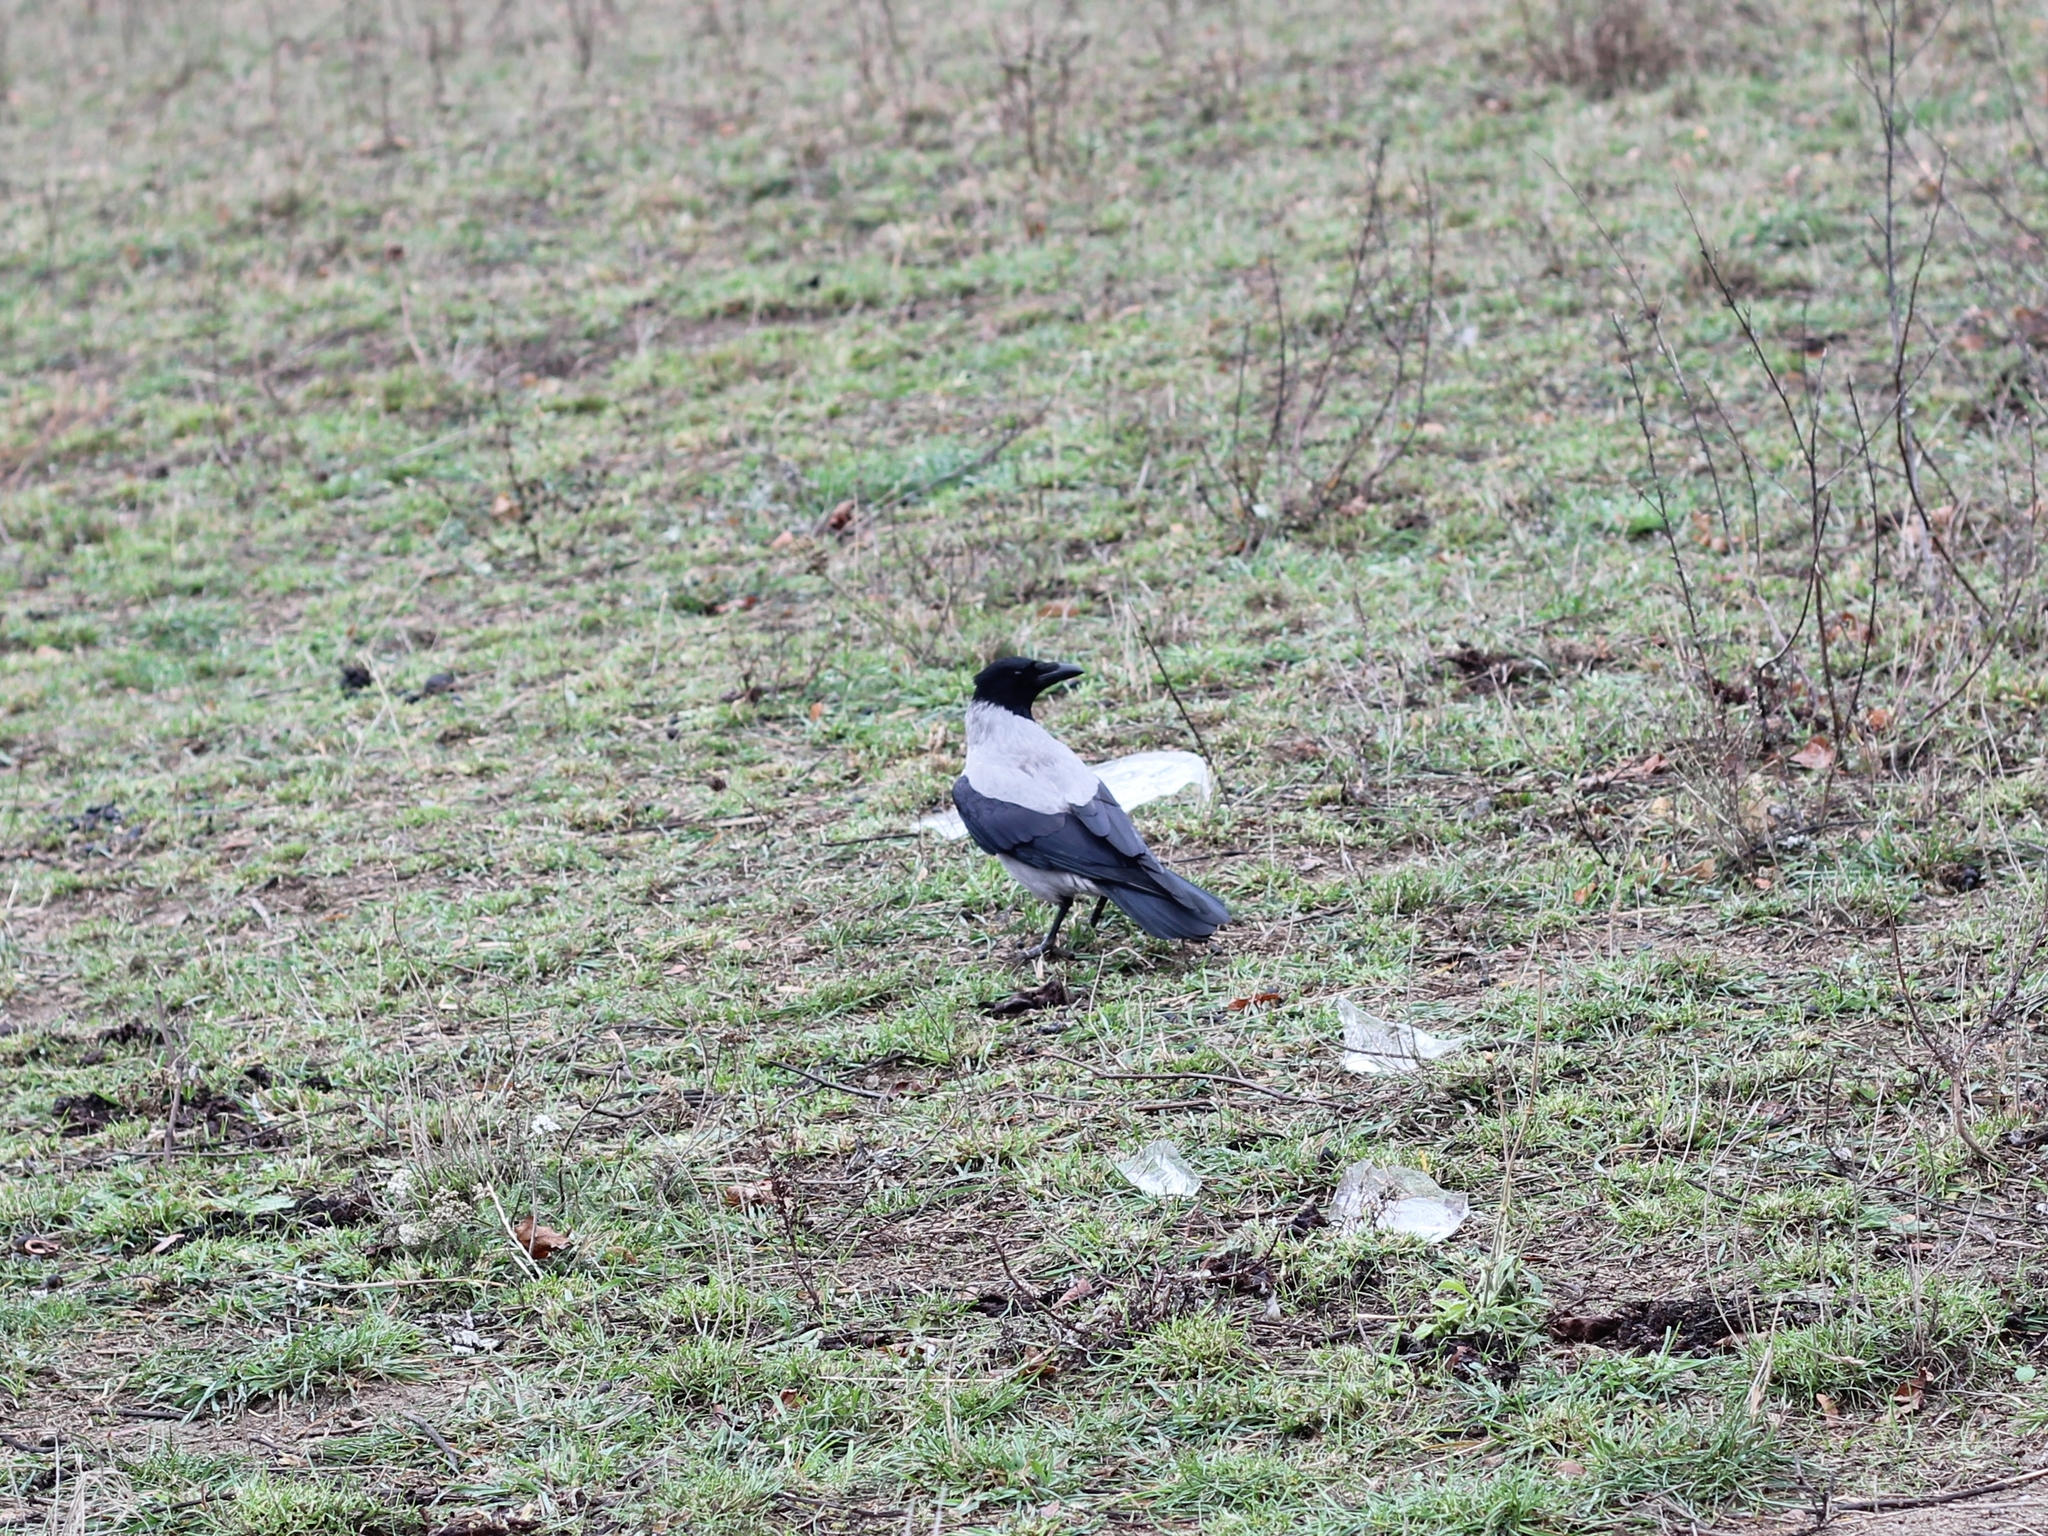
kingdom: Animalia
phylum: Chordata
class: Aves
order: Passeriformes
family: Corvidae
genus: Corvus
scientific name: Corvus cornix
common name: Hooded crow
